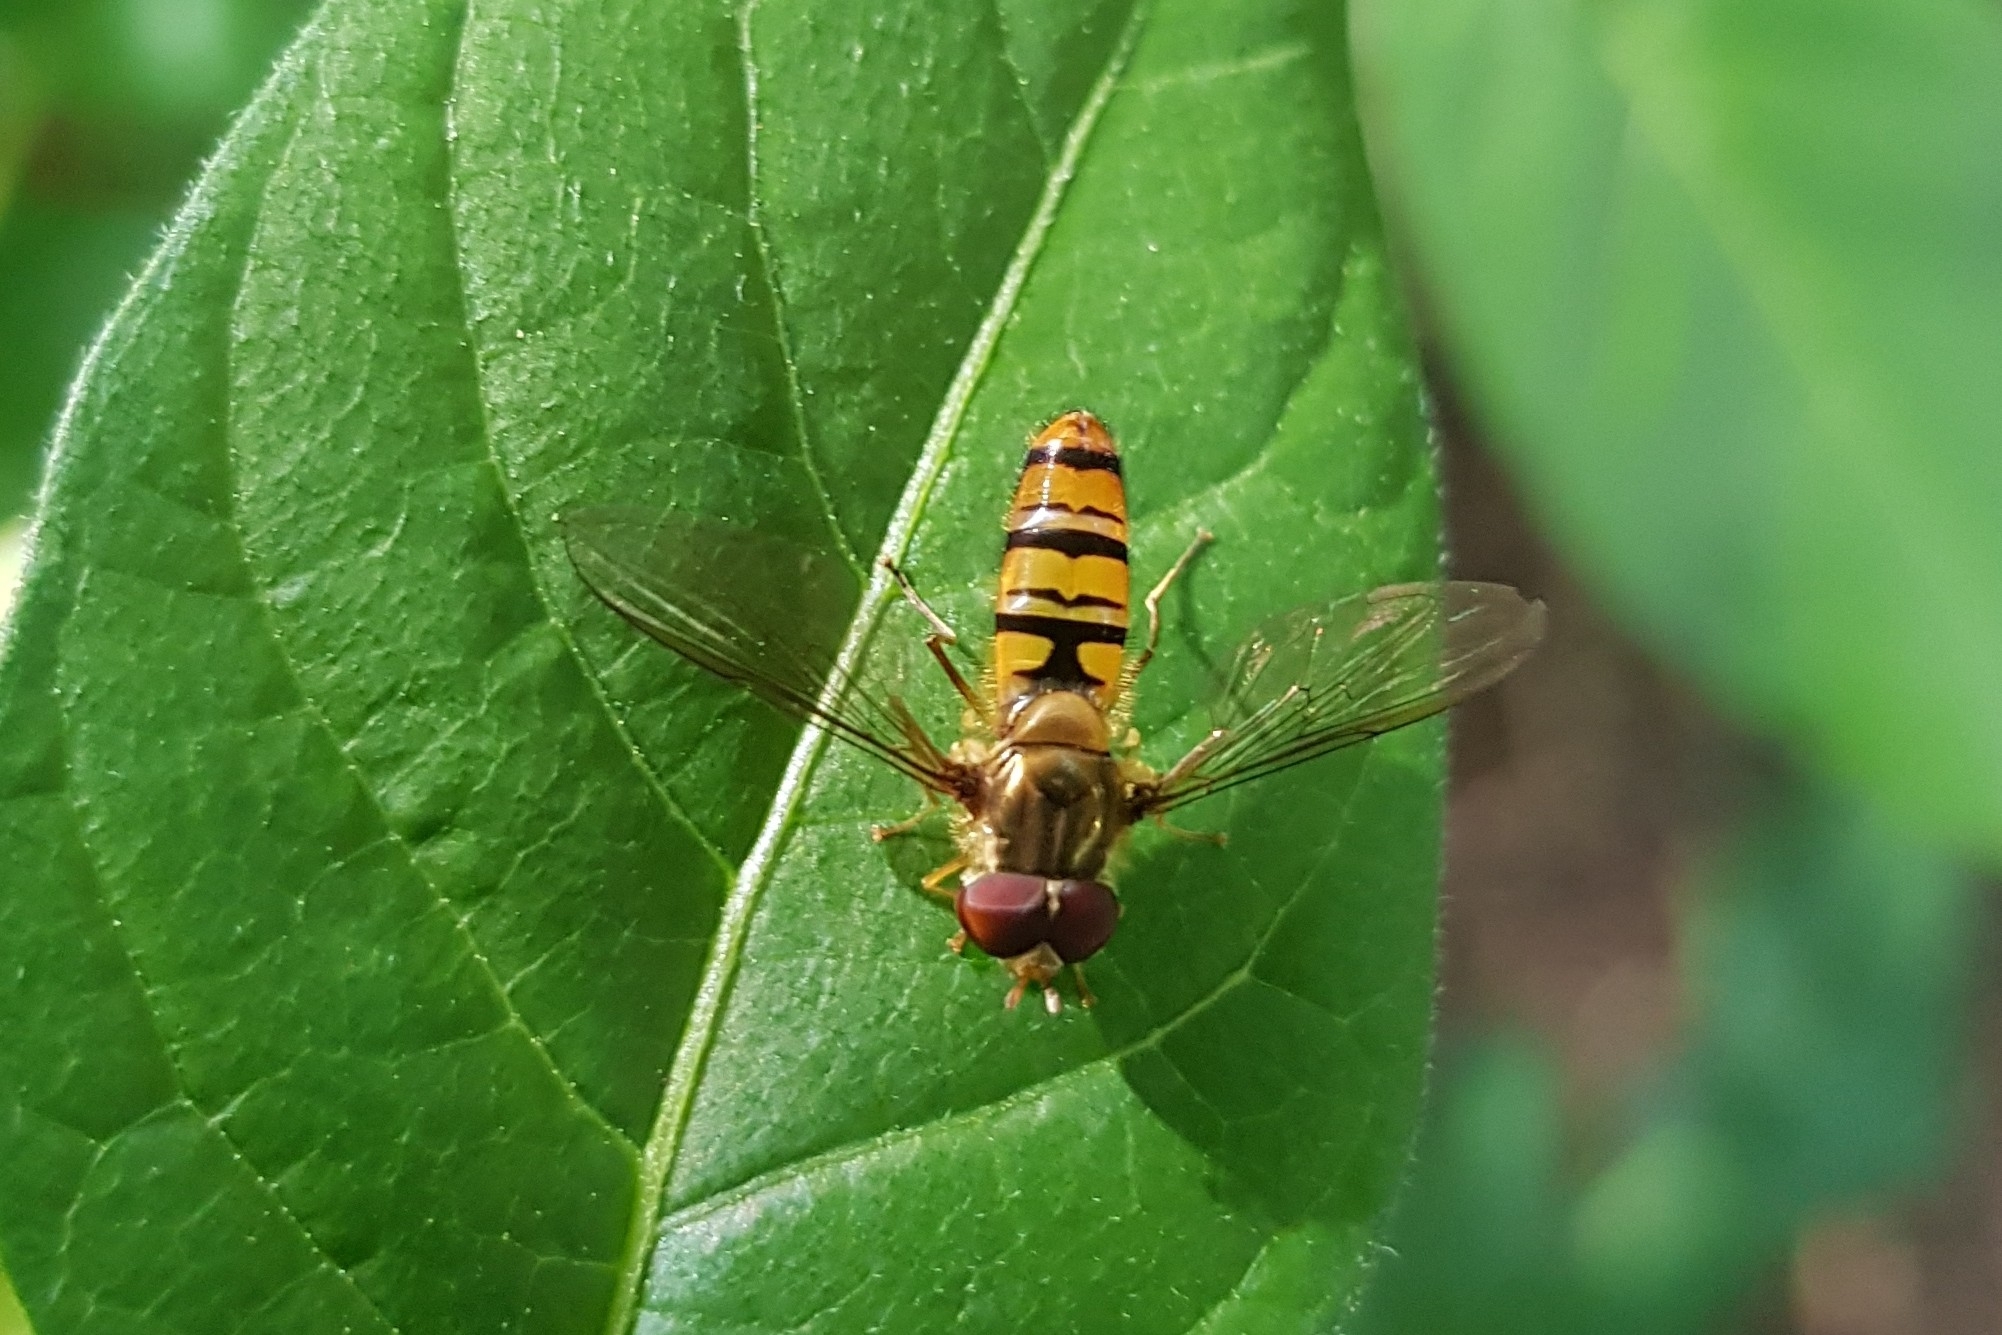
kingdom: Animalia
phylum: Arthropoda
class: Insecta
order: Diptera
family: Syrphidae
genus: Episyrphus
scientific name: Episyrphus balteatus
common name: Marmalade hoverfly
